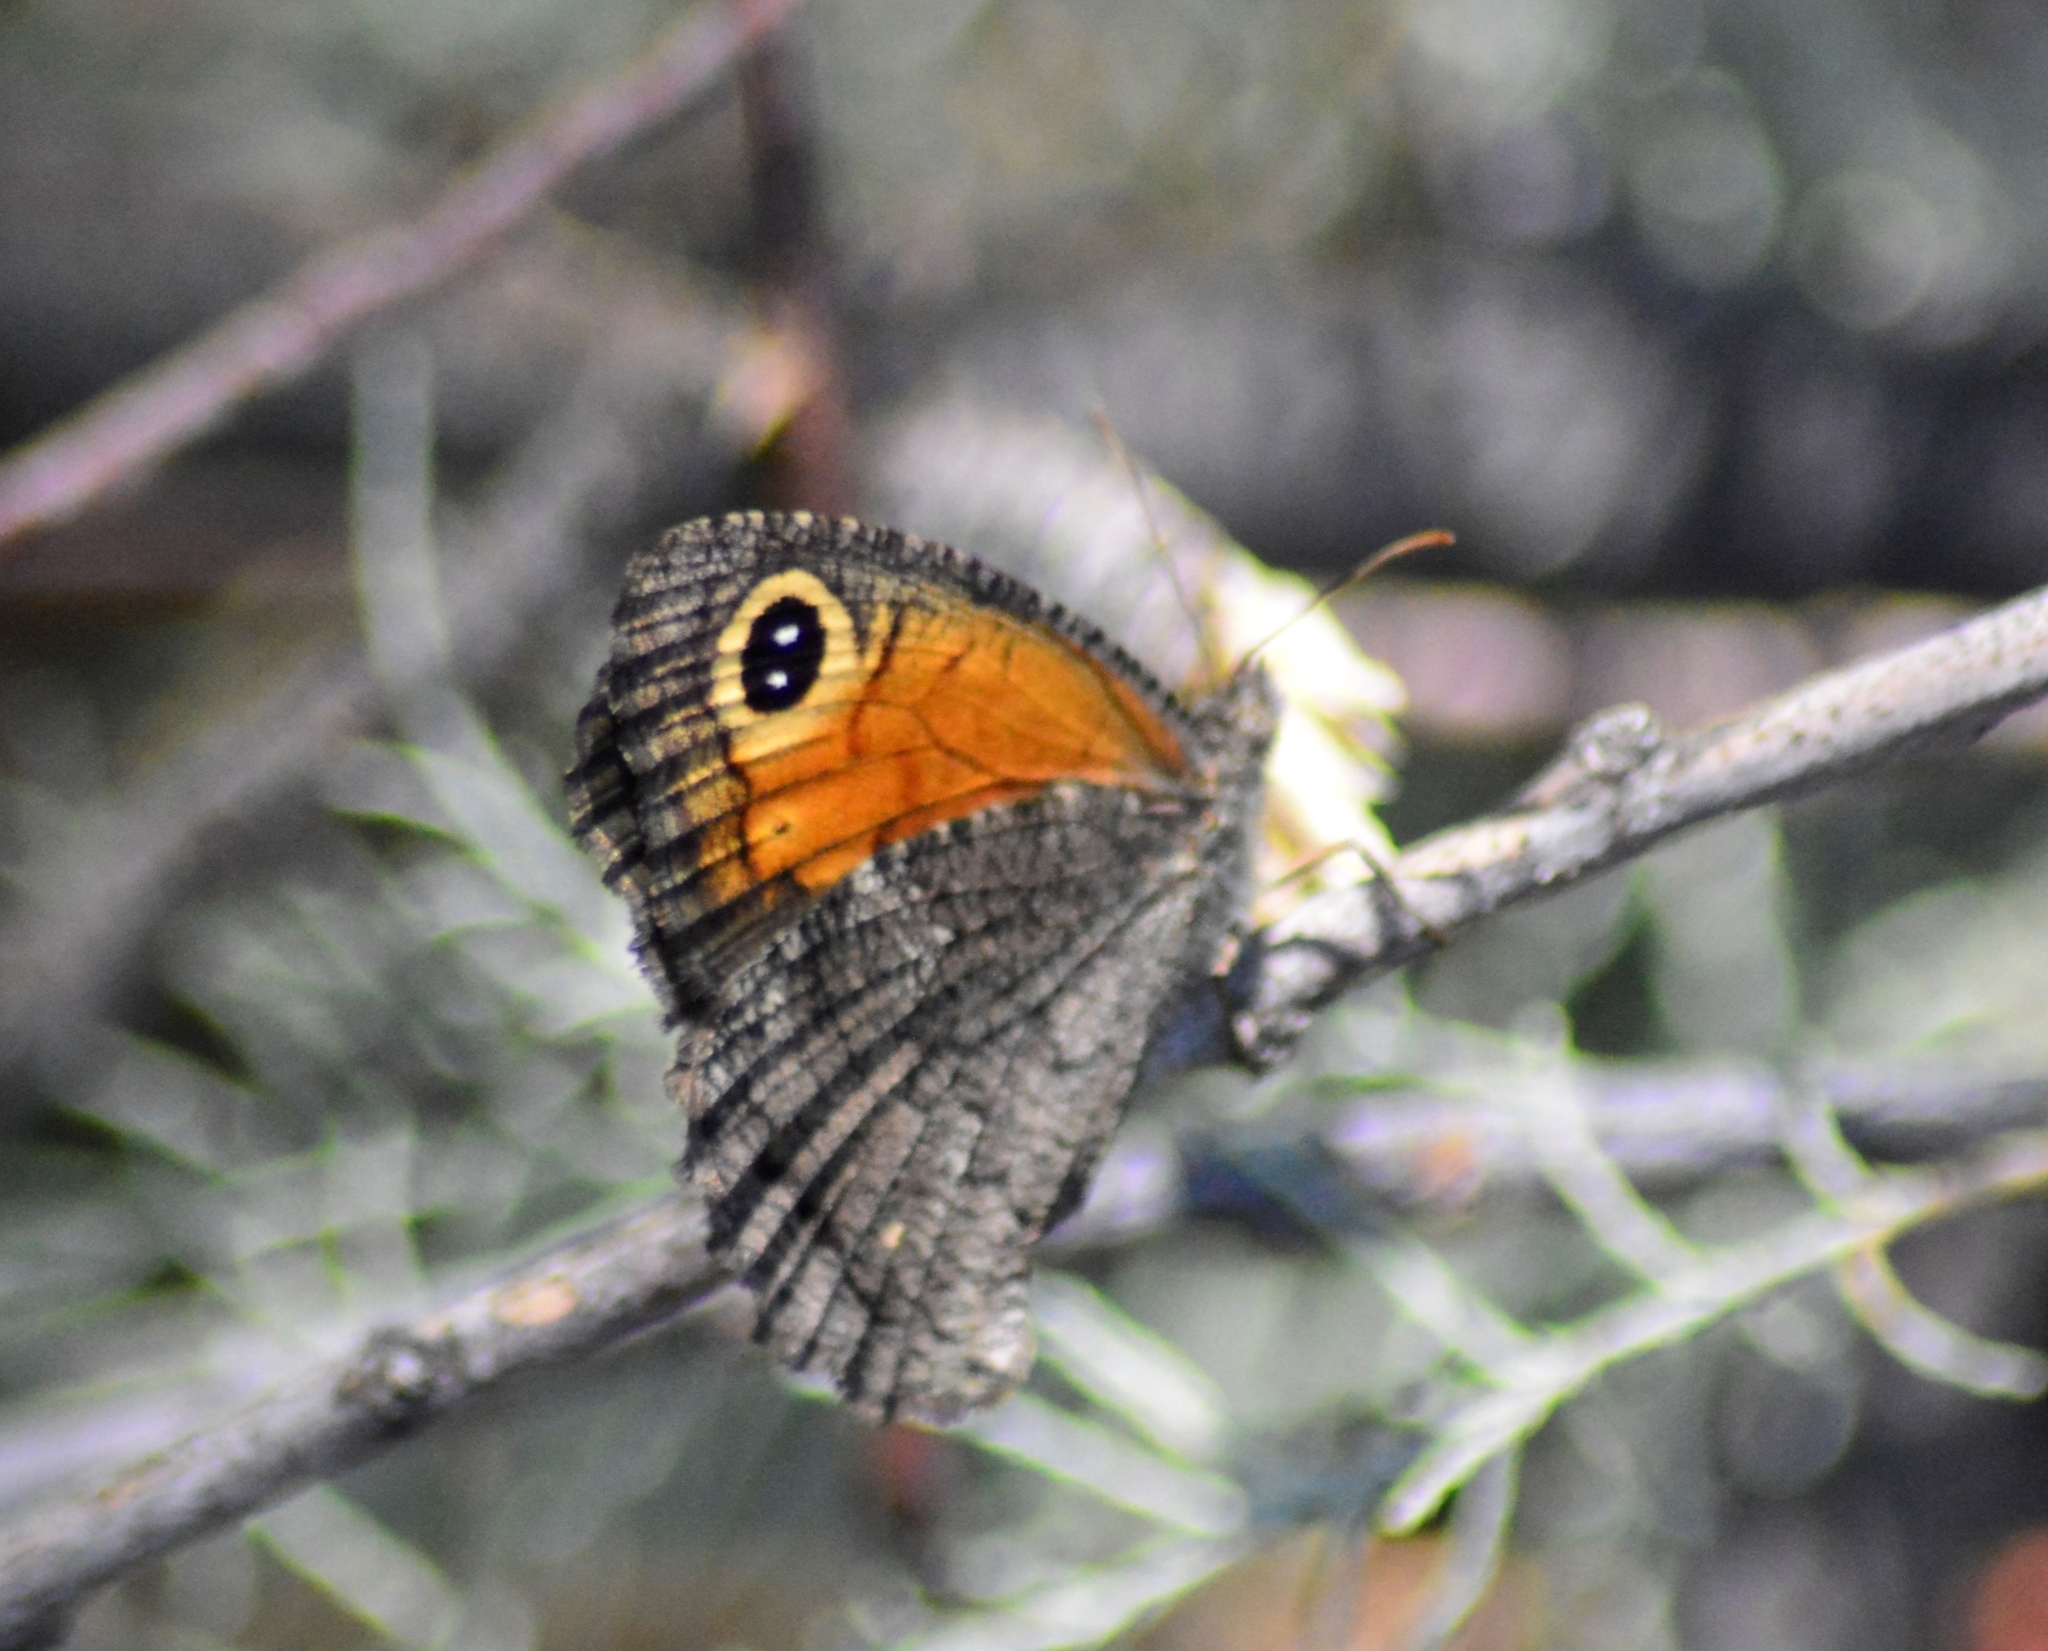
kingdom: Animalia
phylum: Arthropoda
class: Insecta
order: Lepidoptera
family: Nymphalidae
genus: Haywardella
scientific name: Haywardella edmondsii
